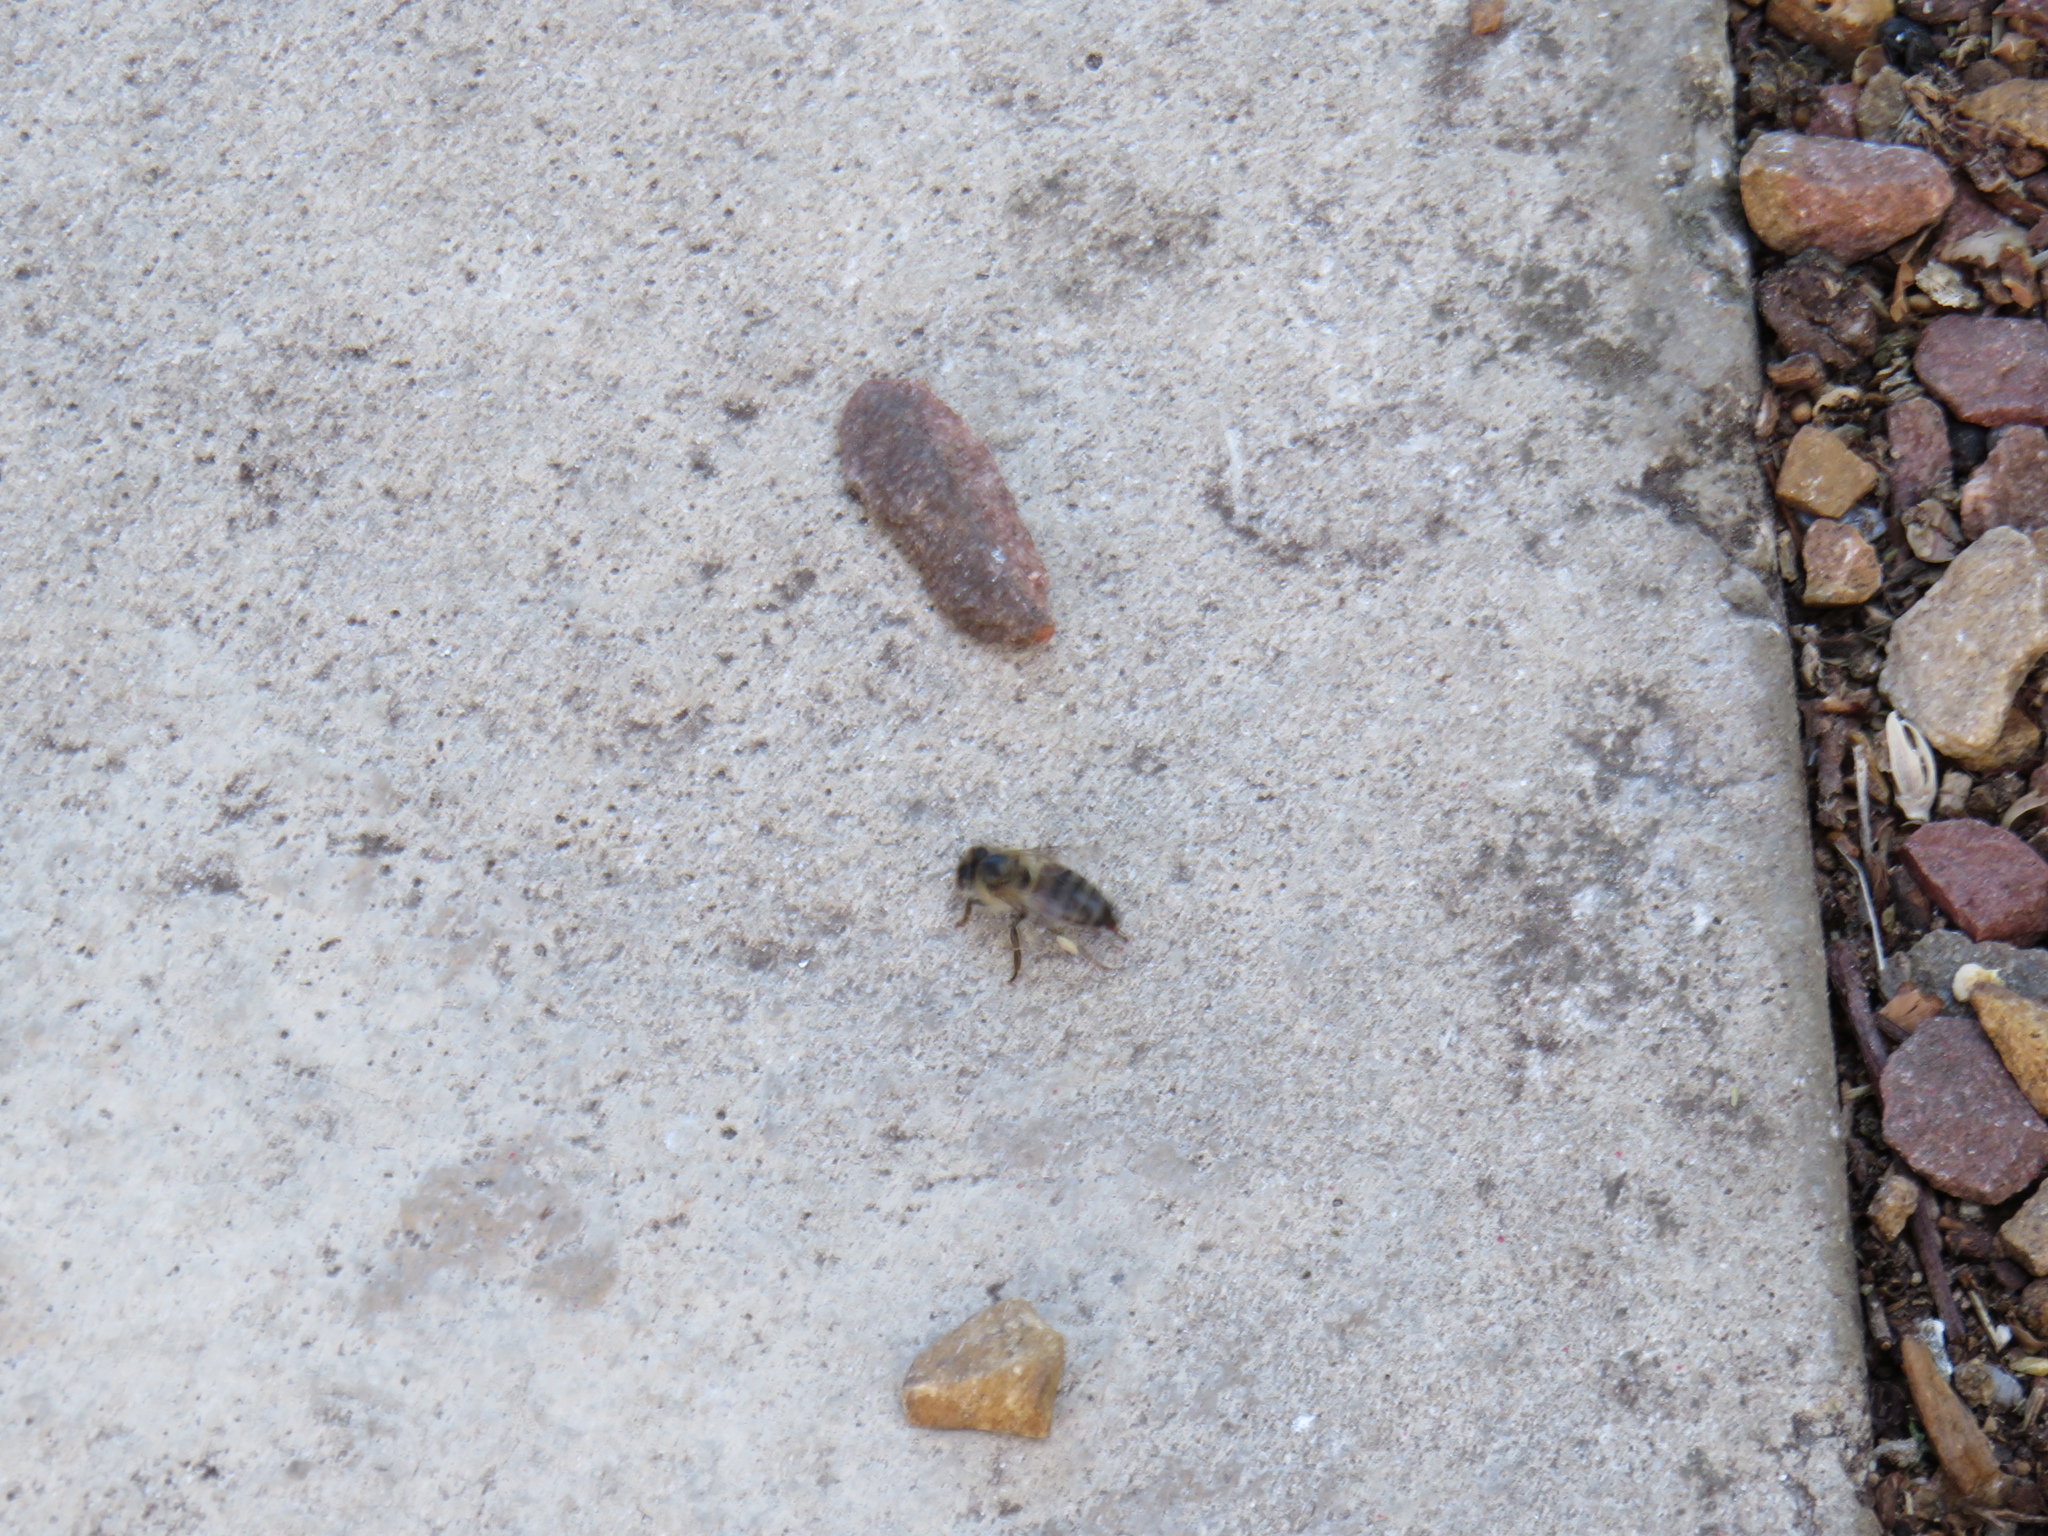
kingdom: Animalia
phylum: Arthropoda
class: Insecta
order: Hymenoptera
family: Apidae
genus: Apis
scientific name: Apis mellifera
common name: Honey bee
